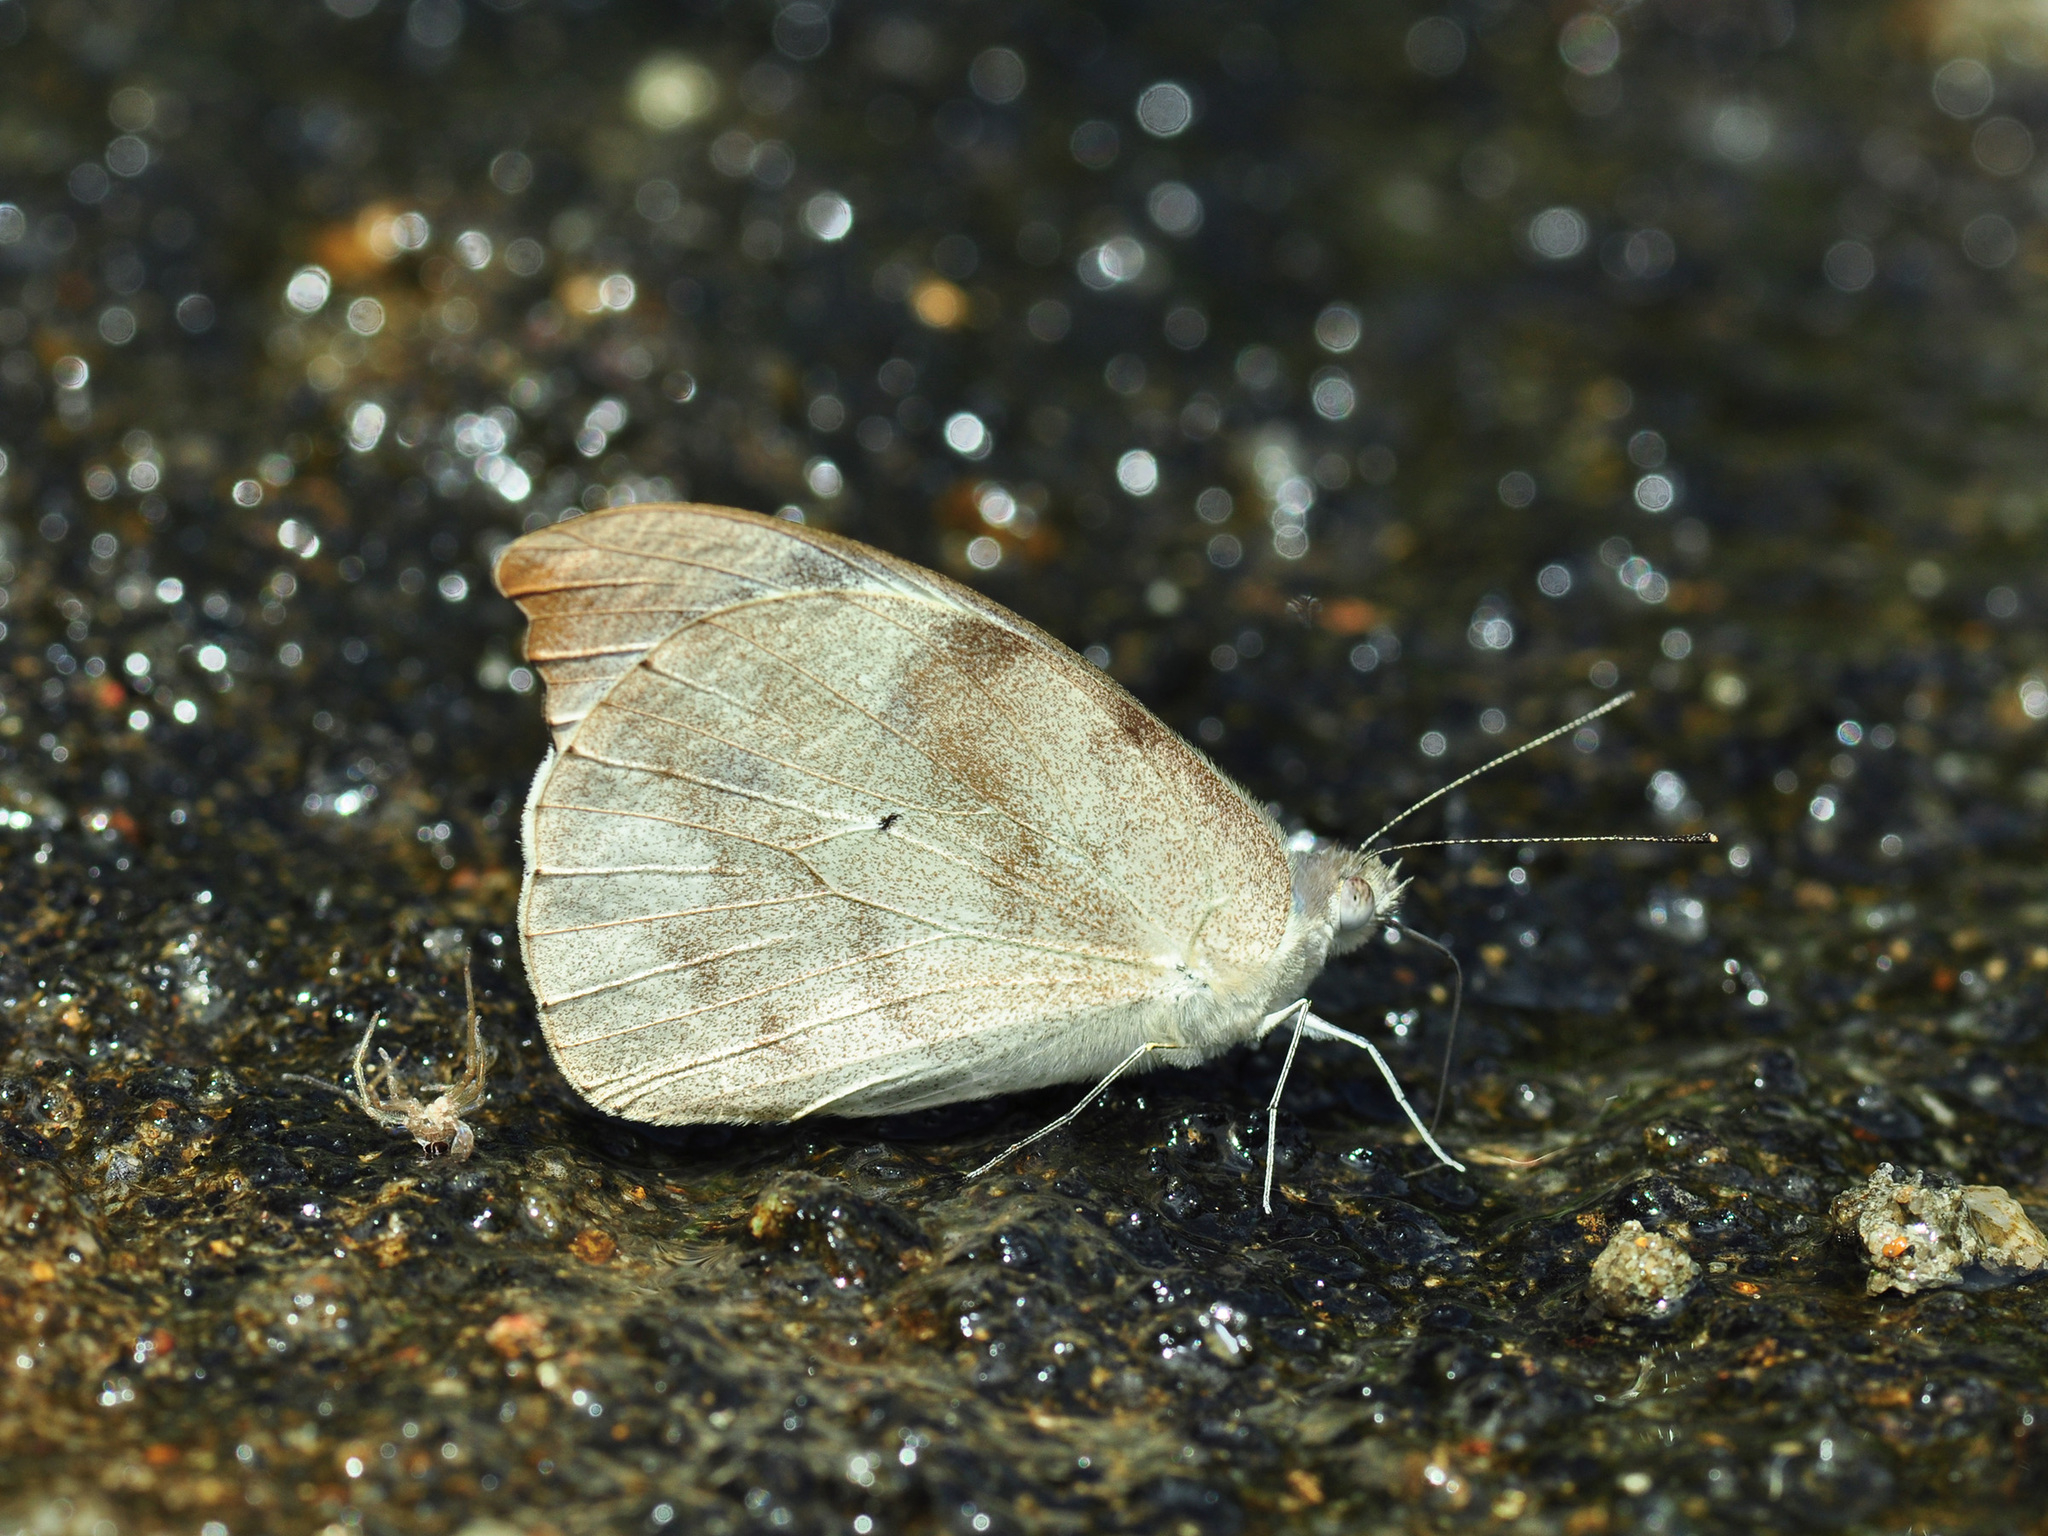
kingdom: Animalia
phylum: Arthropoda
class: Insecta
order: Lepidoptera
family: Pieridae
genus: Appias
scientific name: Appias lalassis
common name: Burmese puffin
